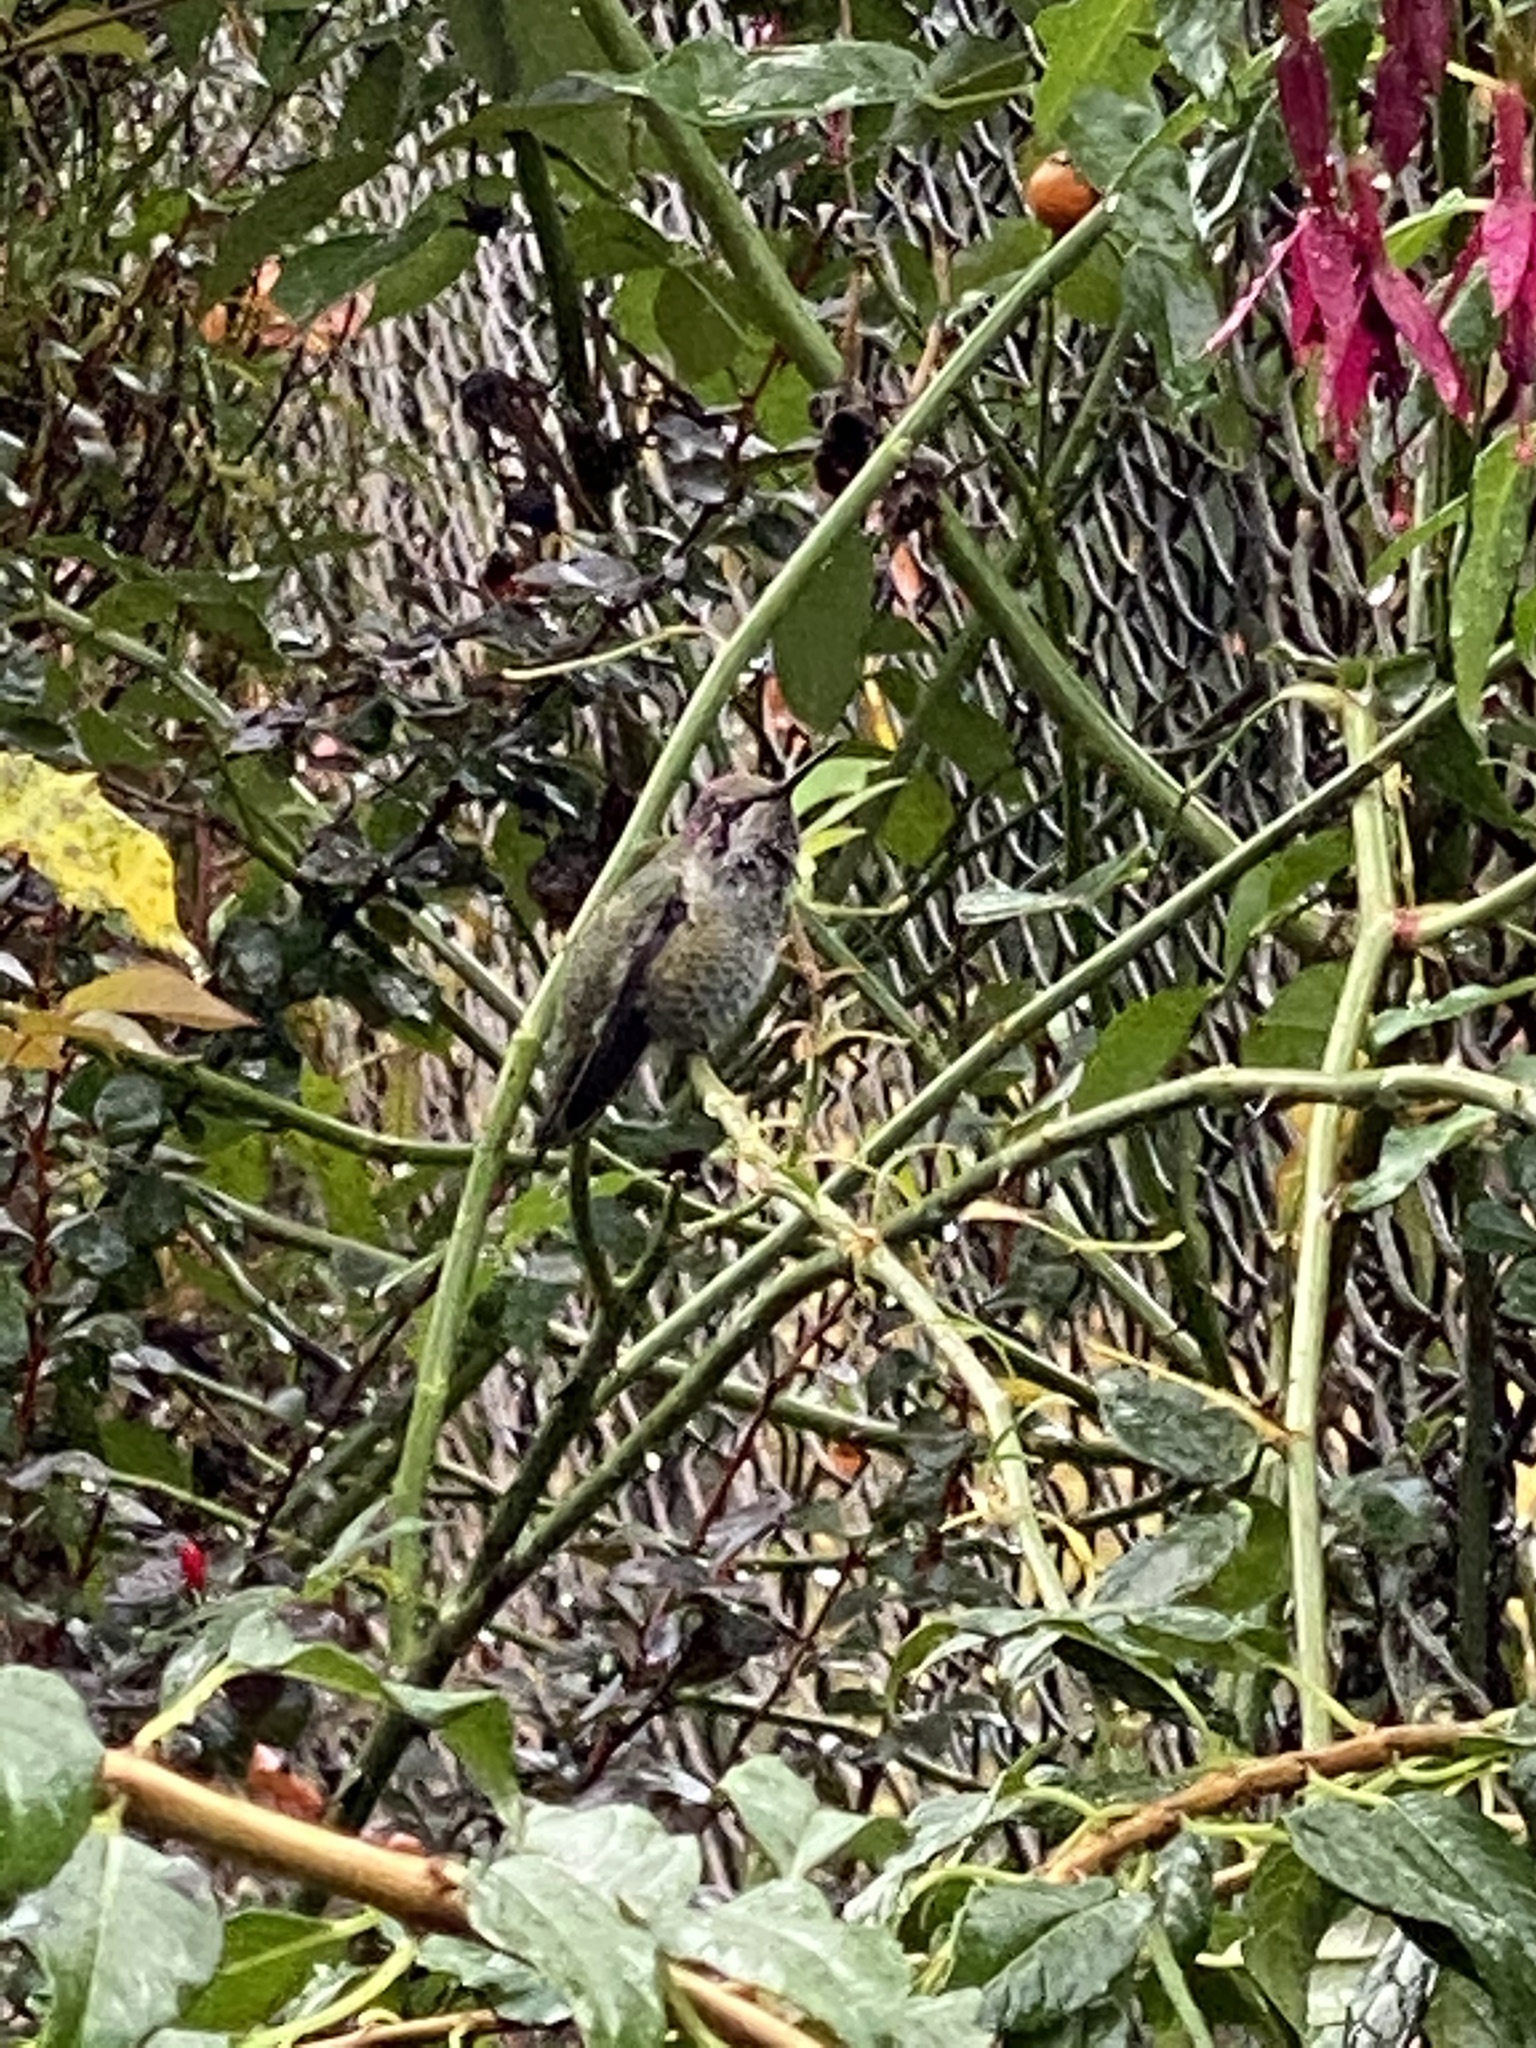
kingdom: Animalia
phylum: Chordata
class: Aves
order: Apodiformes
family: Trochilidae
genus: Calypte
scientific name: Calypte anna
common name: Anna's hummingbird
